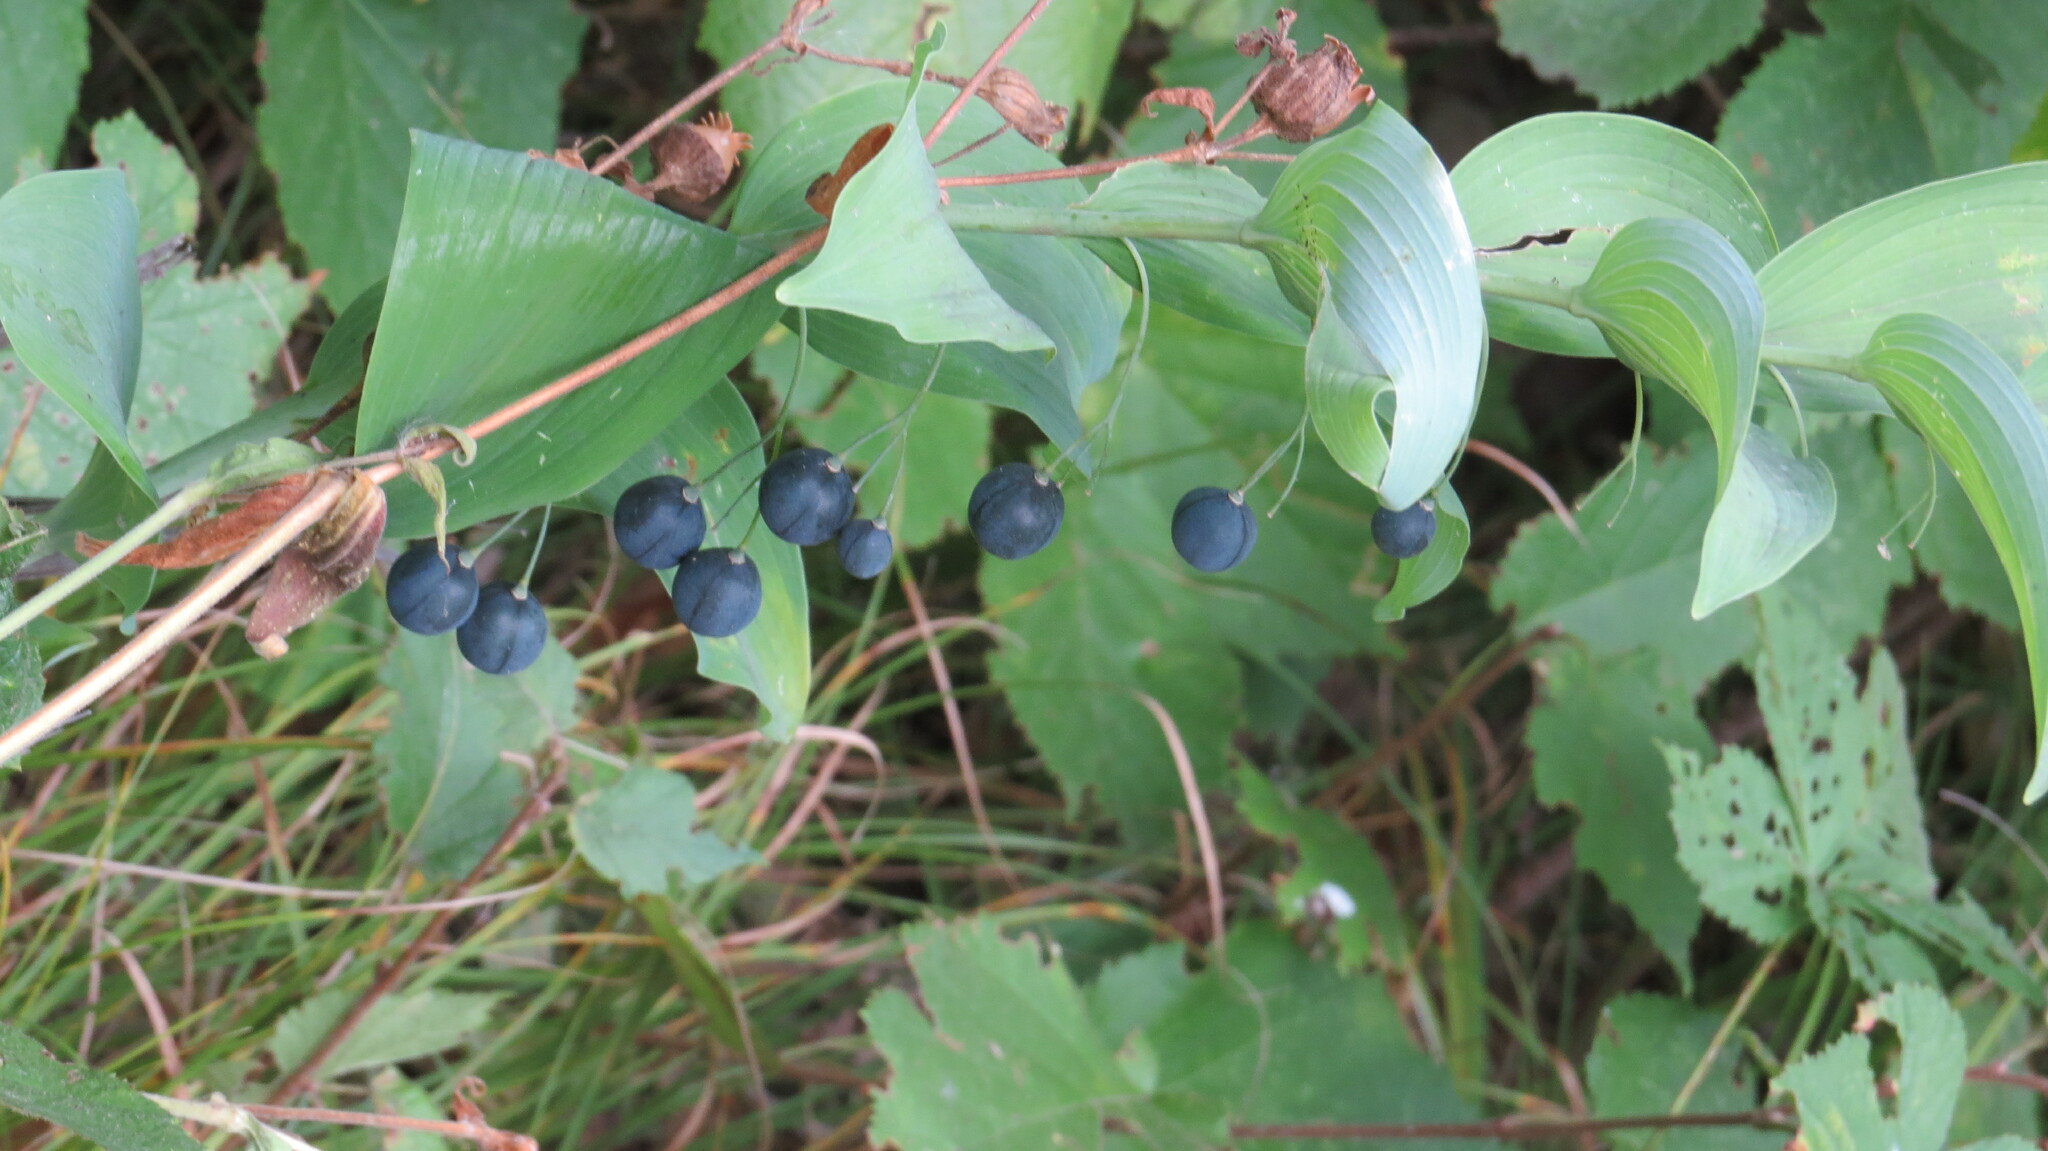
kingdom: Plantae
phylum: Tracheophyta
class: Liliopsida
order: Asparagales
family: Asparagaceae
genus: Polygonatum
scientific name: Polygonatum biflorum
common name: American solomon's-seal
